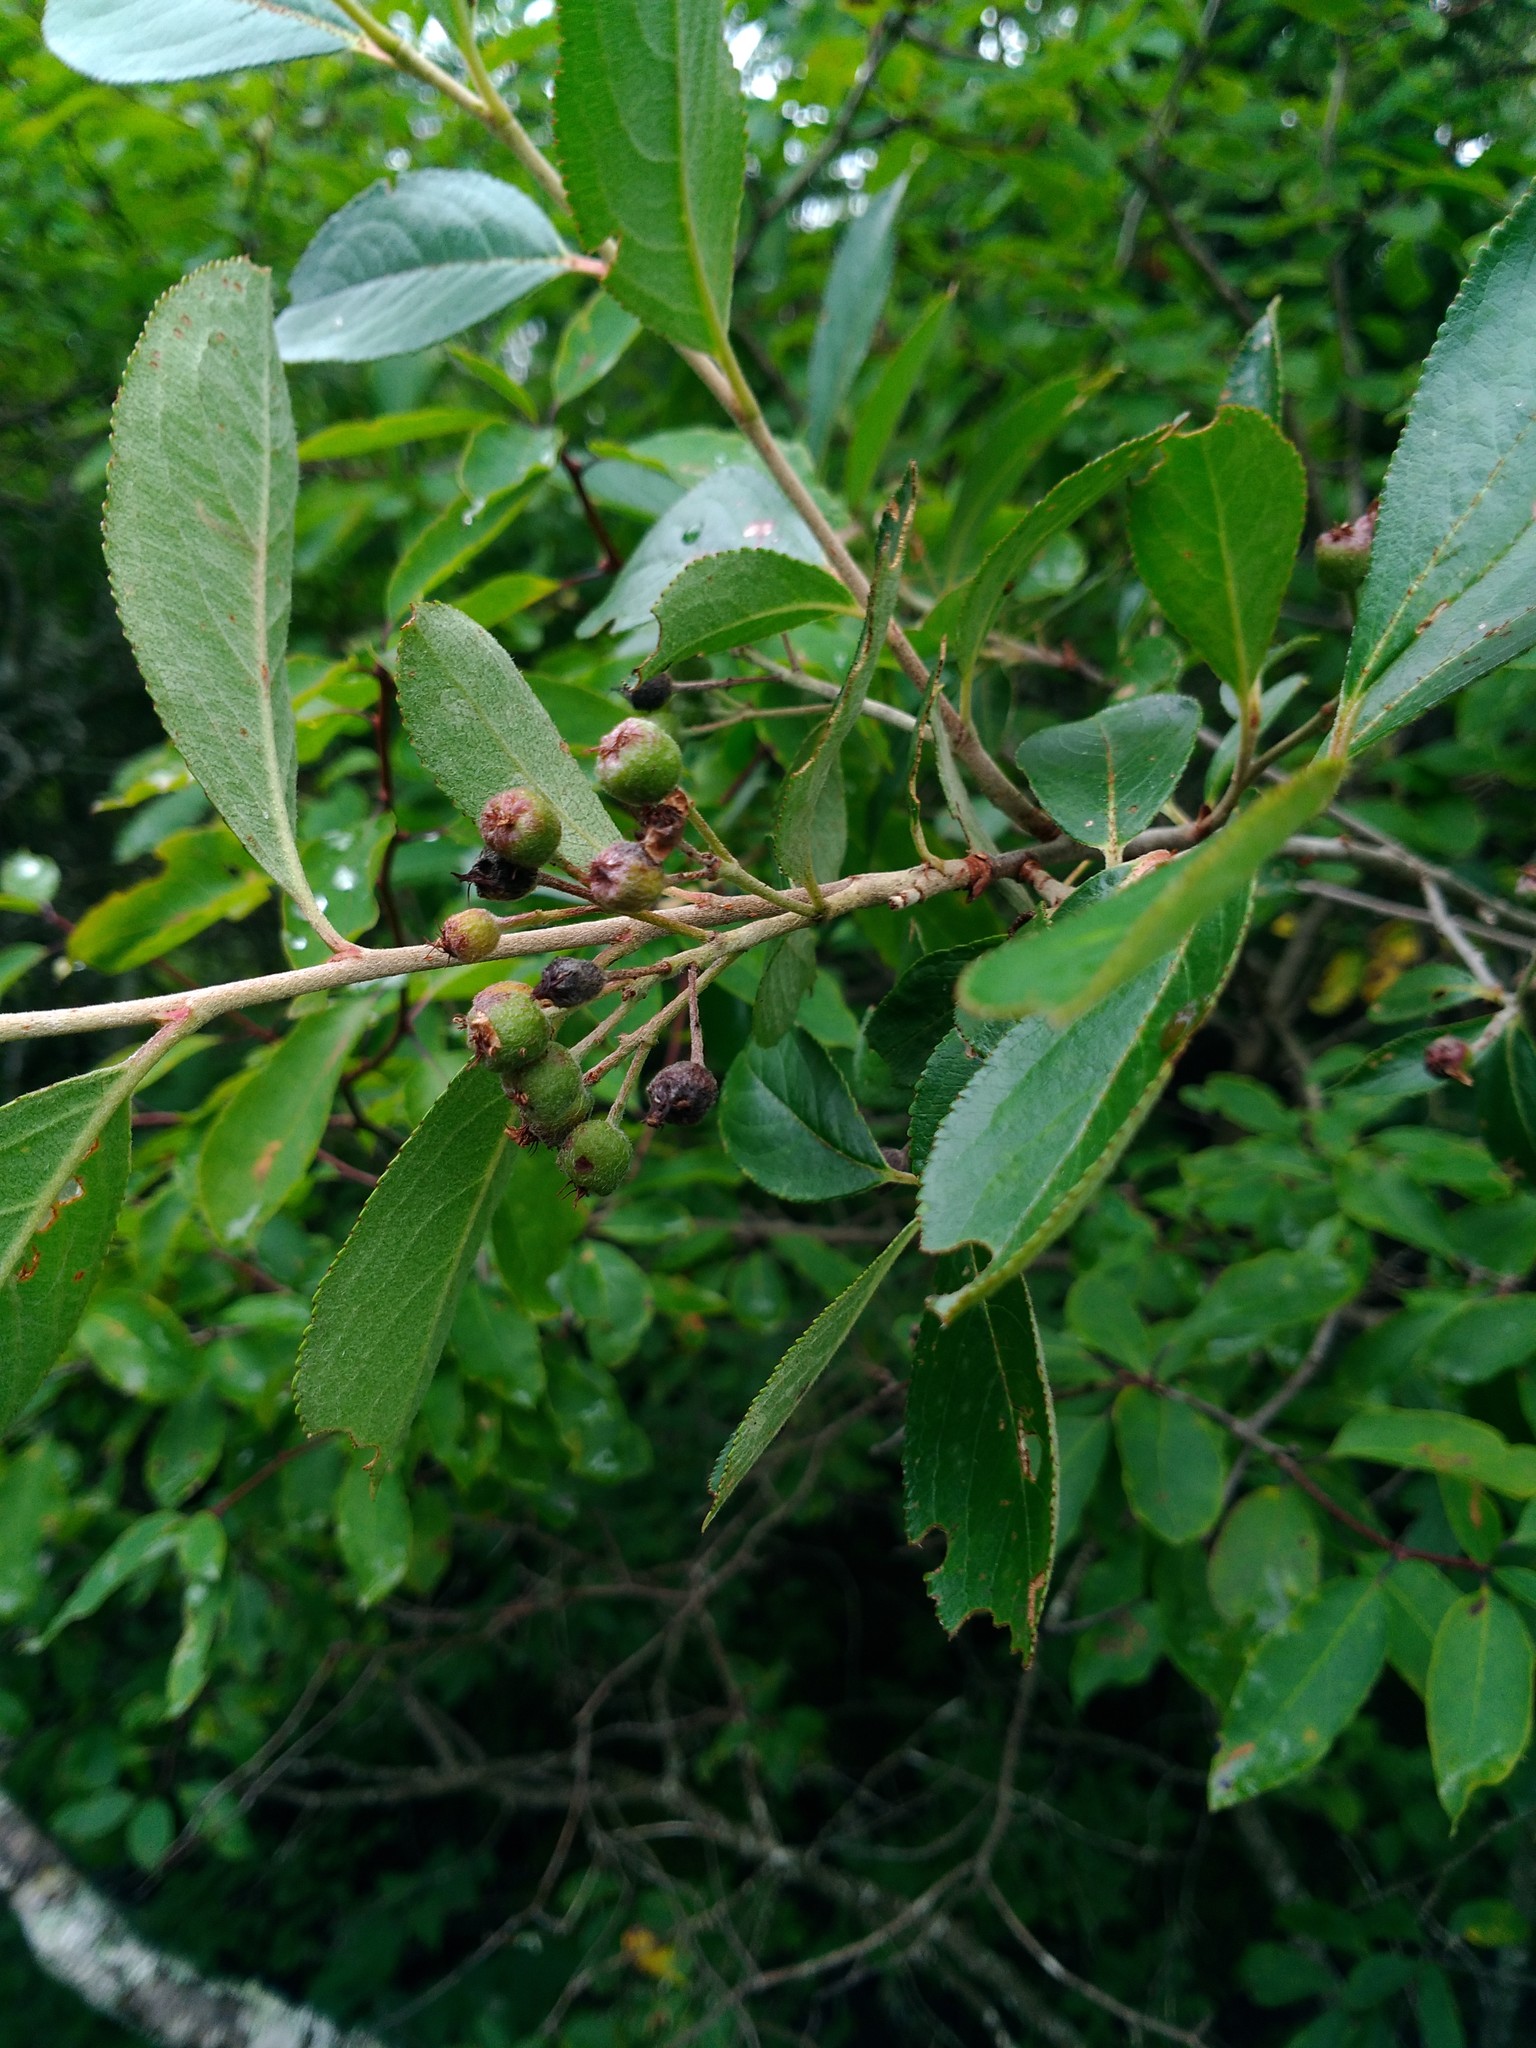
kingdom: Plantae
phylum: Tracheophyta
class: Magnoliopsida
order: Rosales
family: Rosaceae
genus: Aronia
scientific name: Aronia prunifolia
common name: Purple chokeberry
